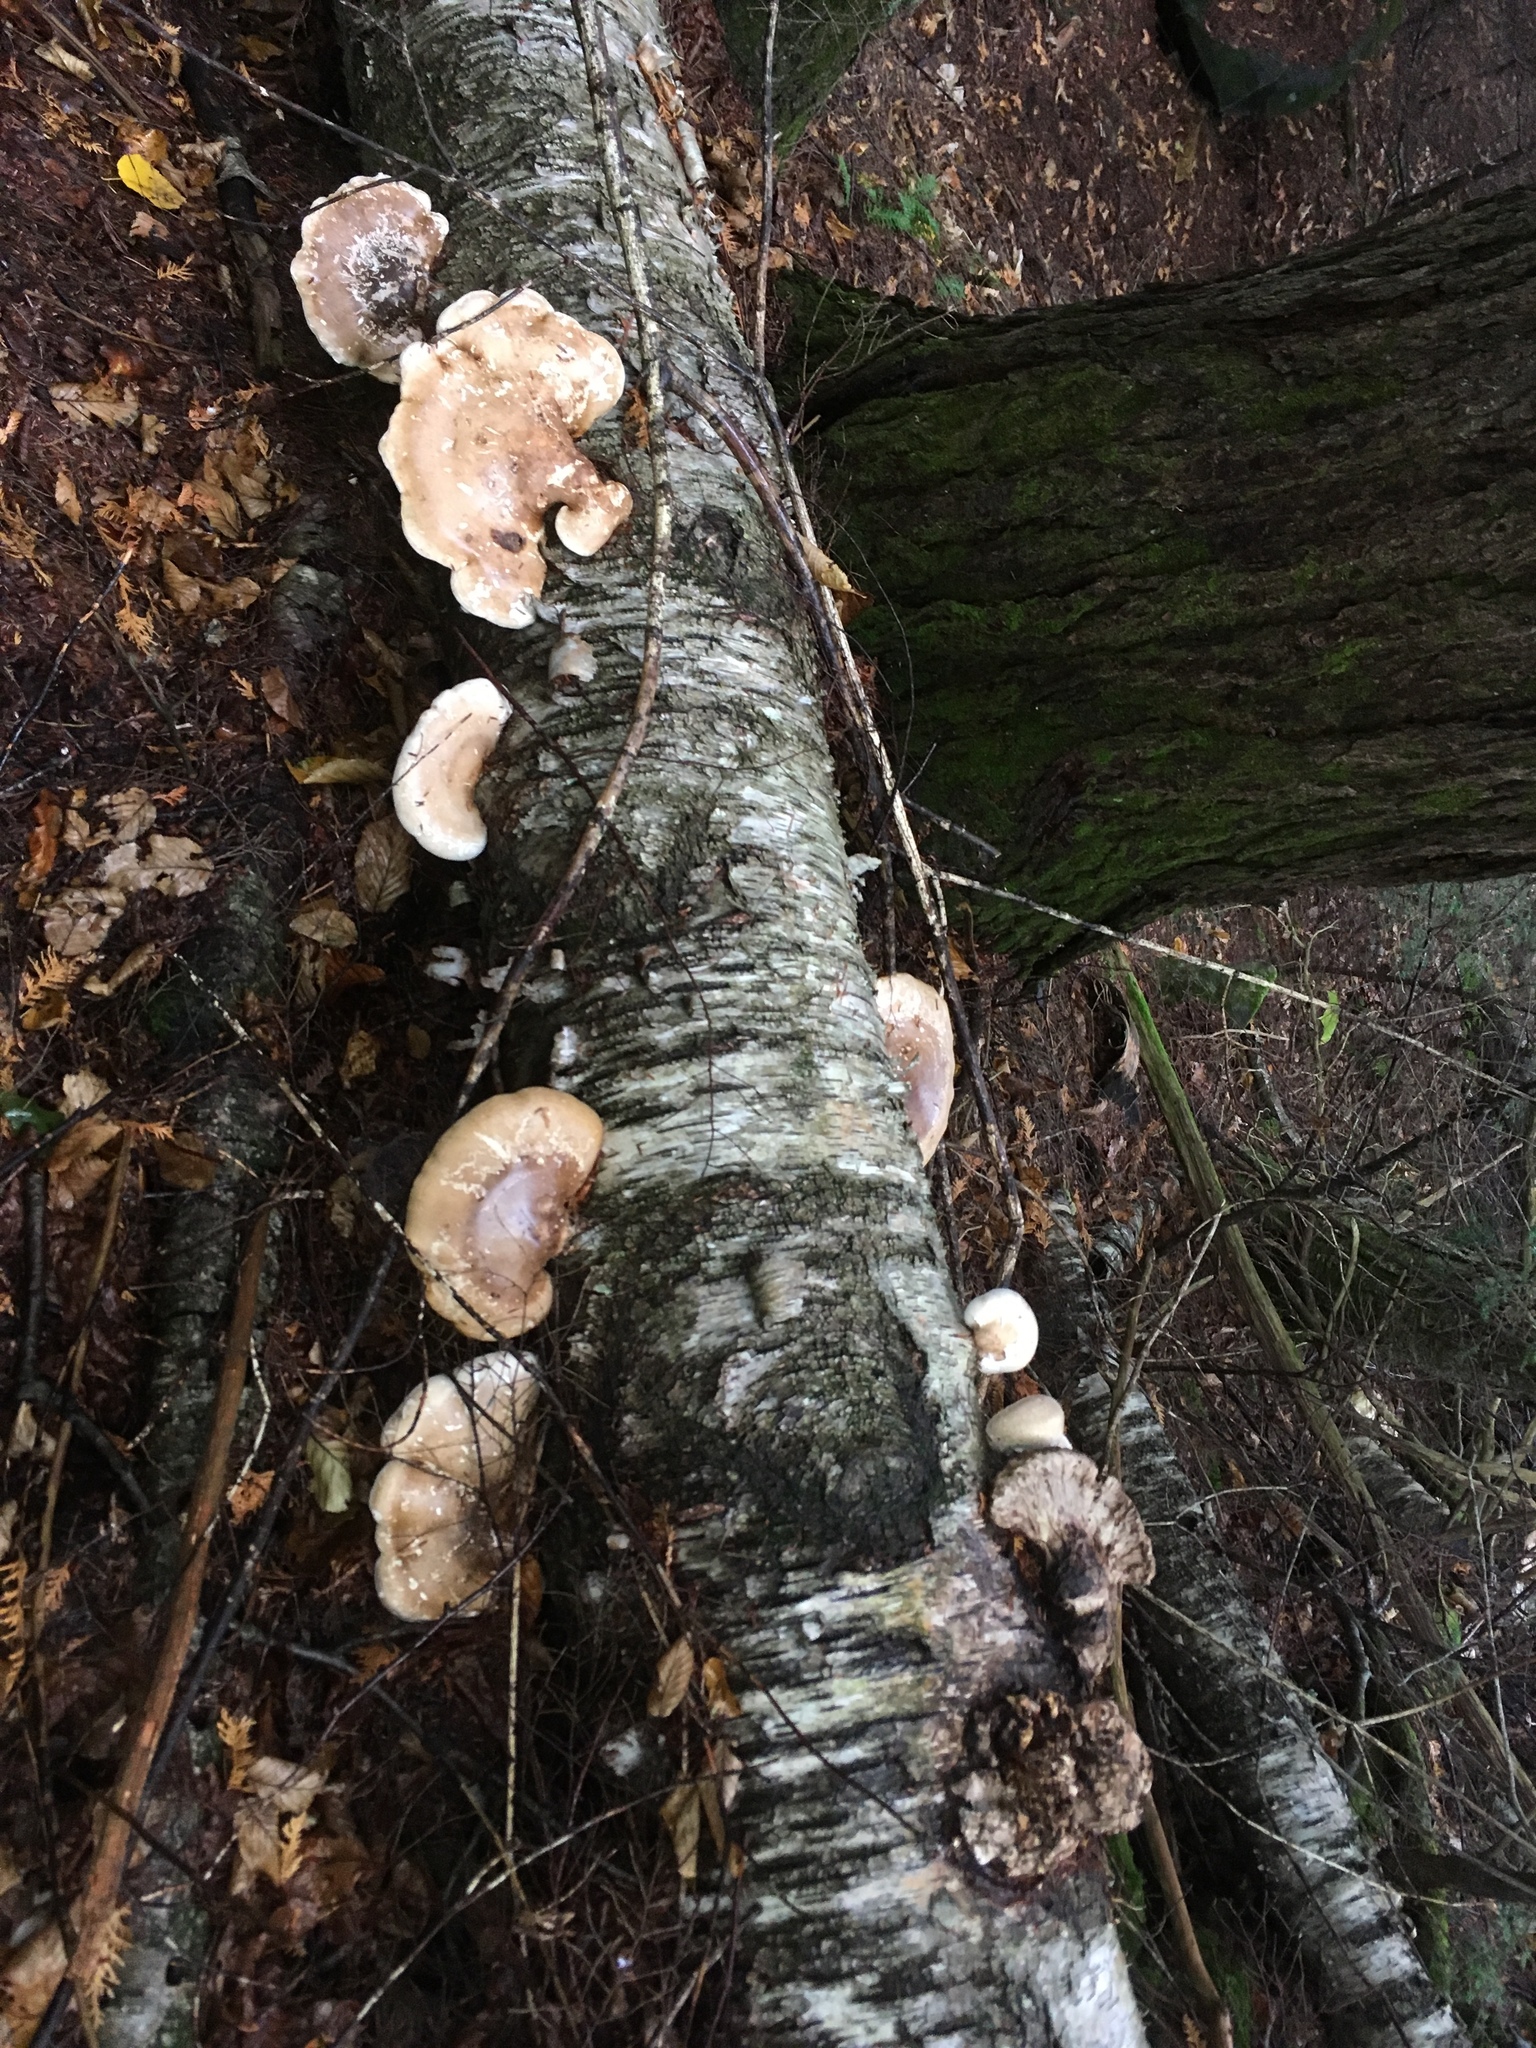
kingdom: Fungi
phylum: Basidiomycota
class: Agaricomycetes
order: Polyporales
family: Fomitopsidaceae
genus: Fomitopsis
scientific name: Fomitopsis betulina
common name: Birch polypore
